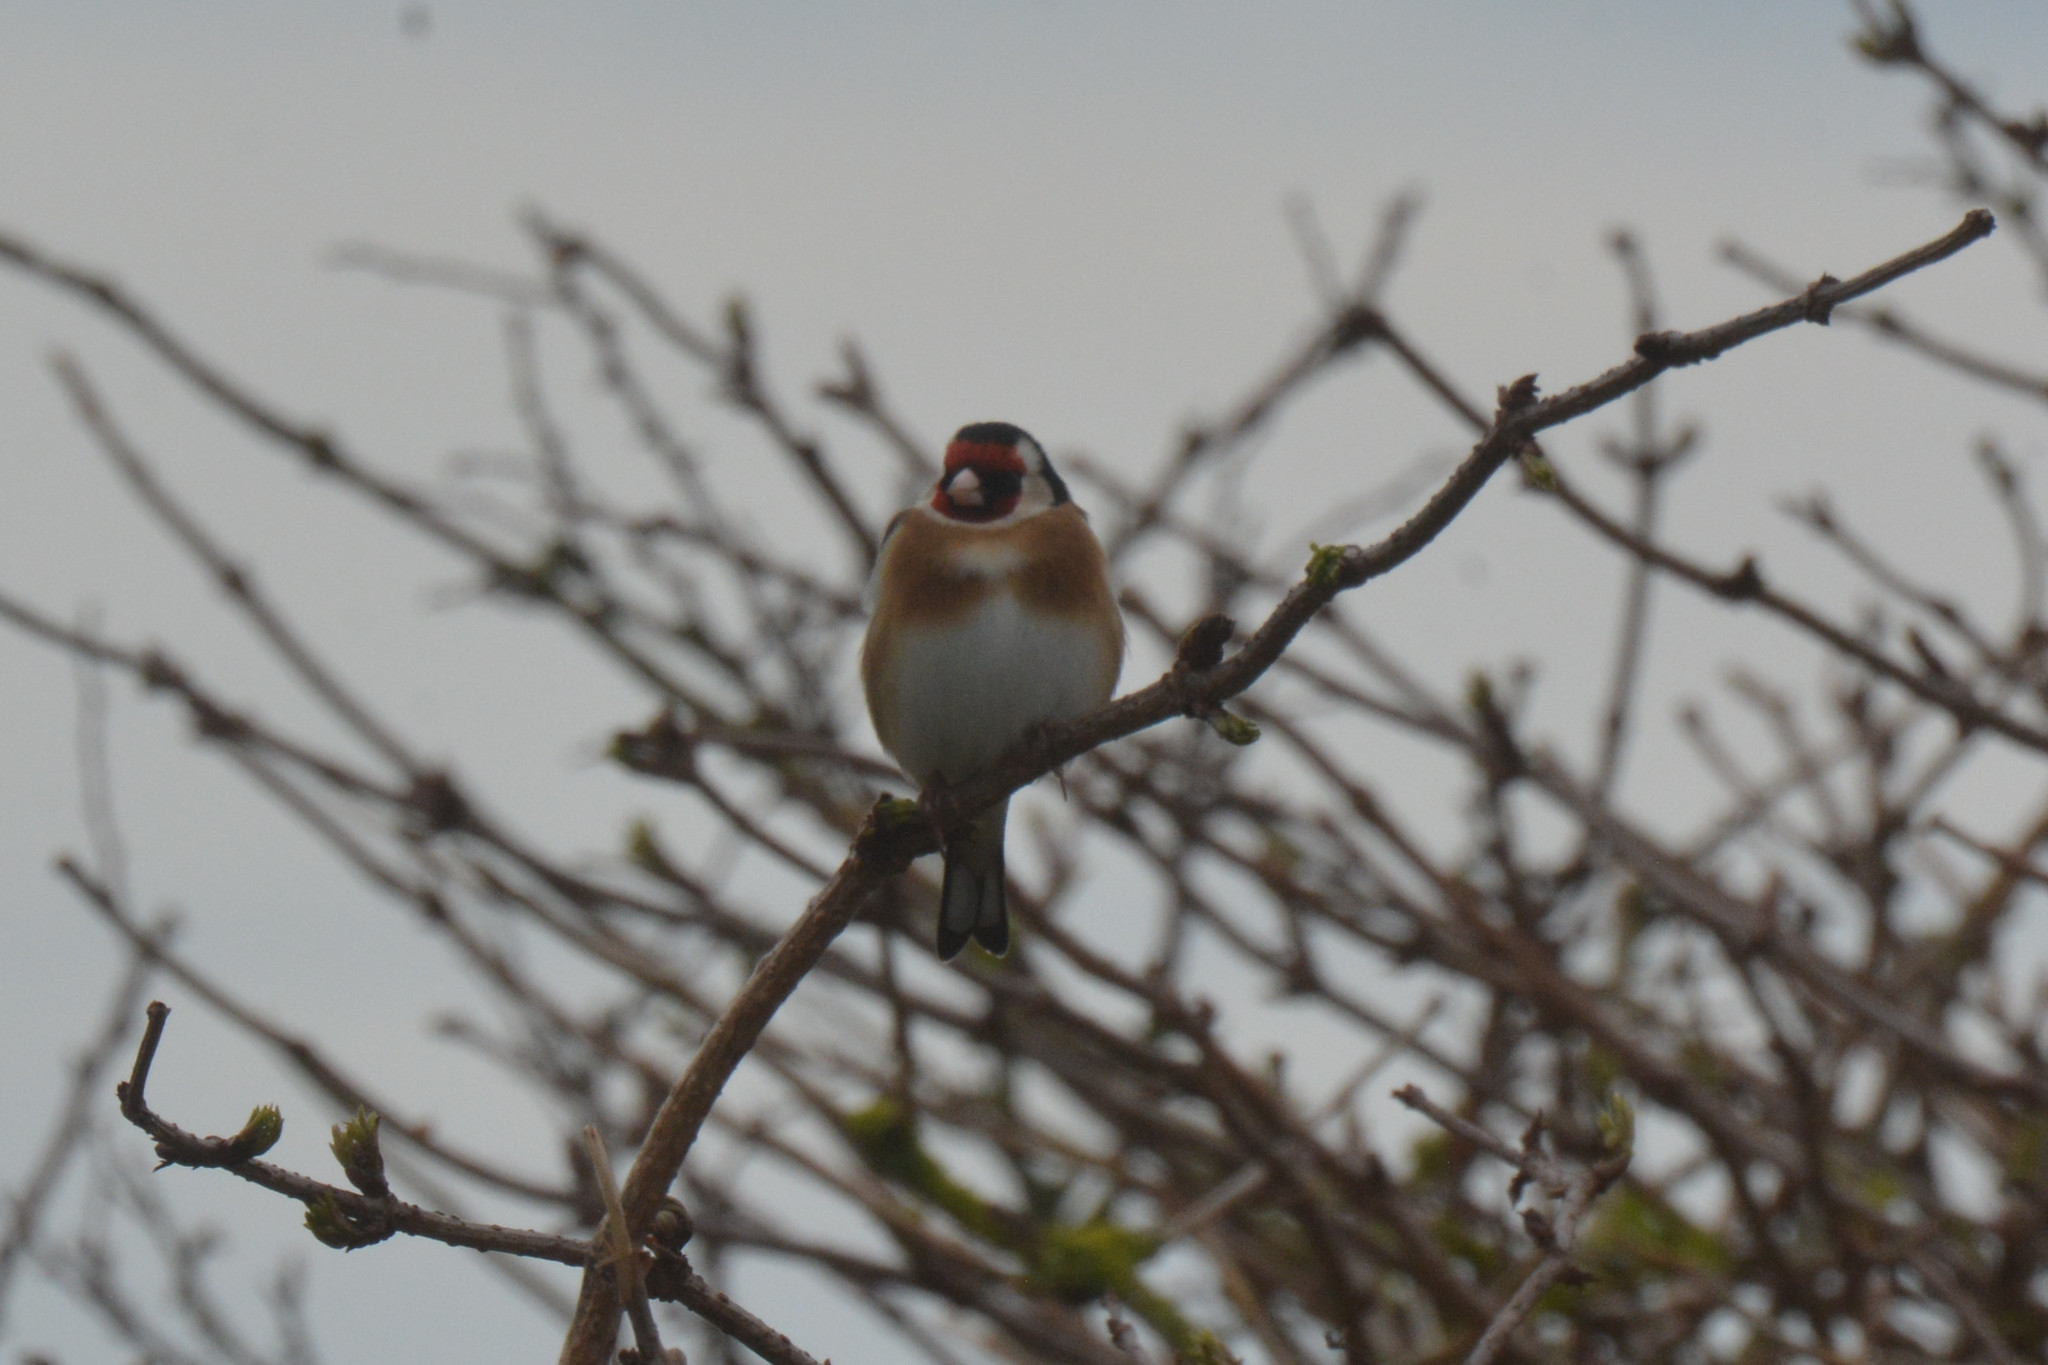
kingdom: Animalia
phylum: Chordata
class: Aves
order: Passeriformes
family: Fringillidae
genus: Carduelis
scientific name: Carduelis carduelis
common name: European goldfinch
